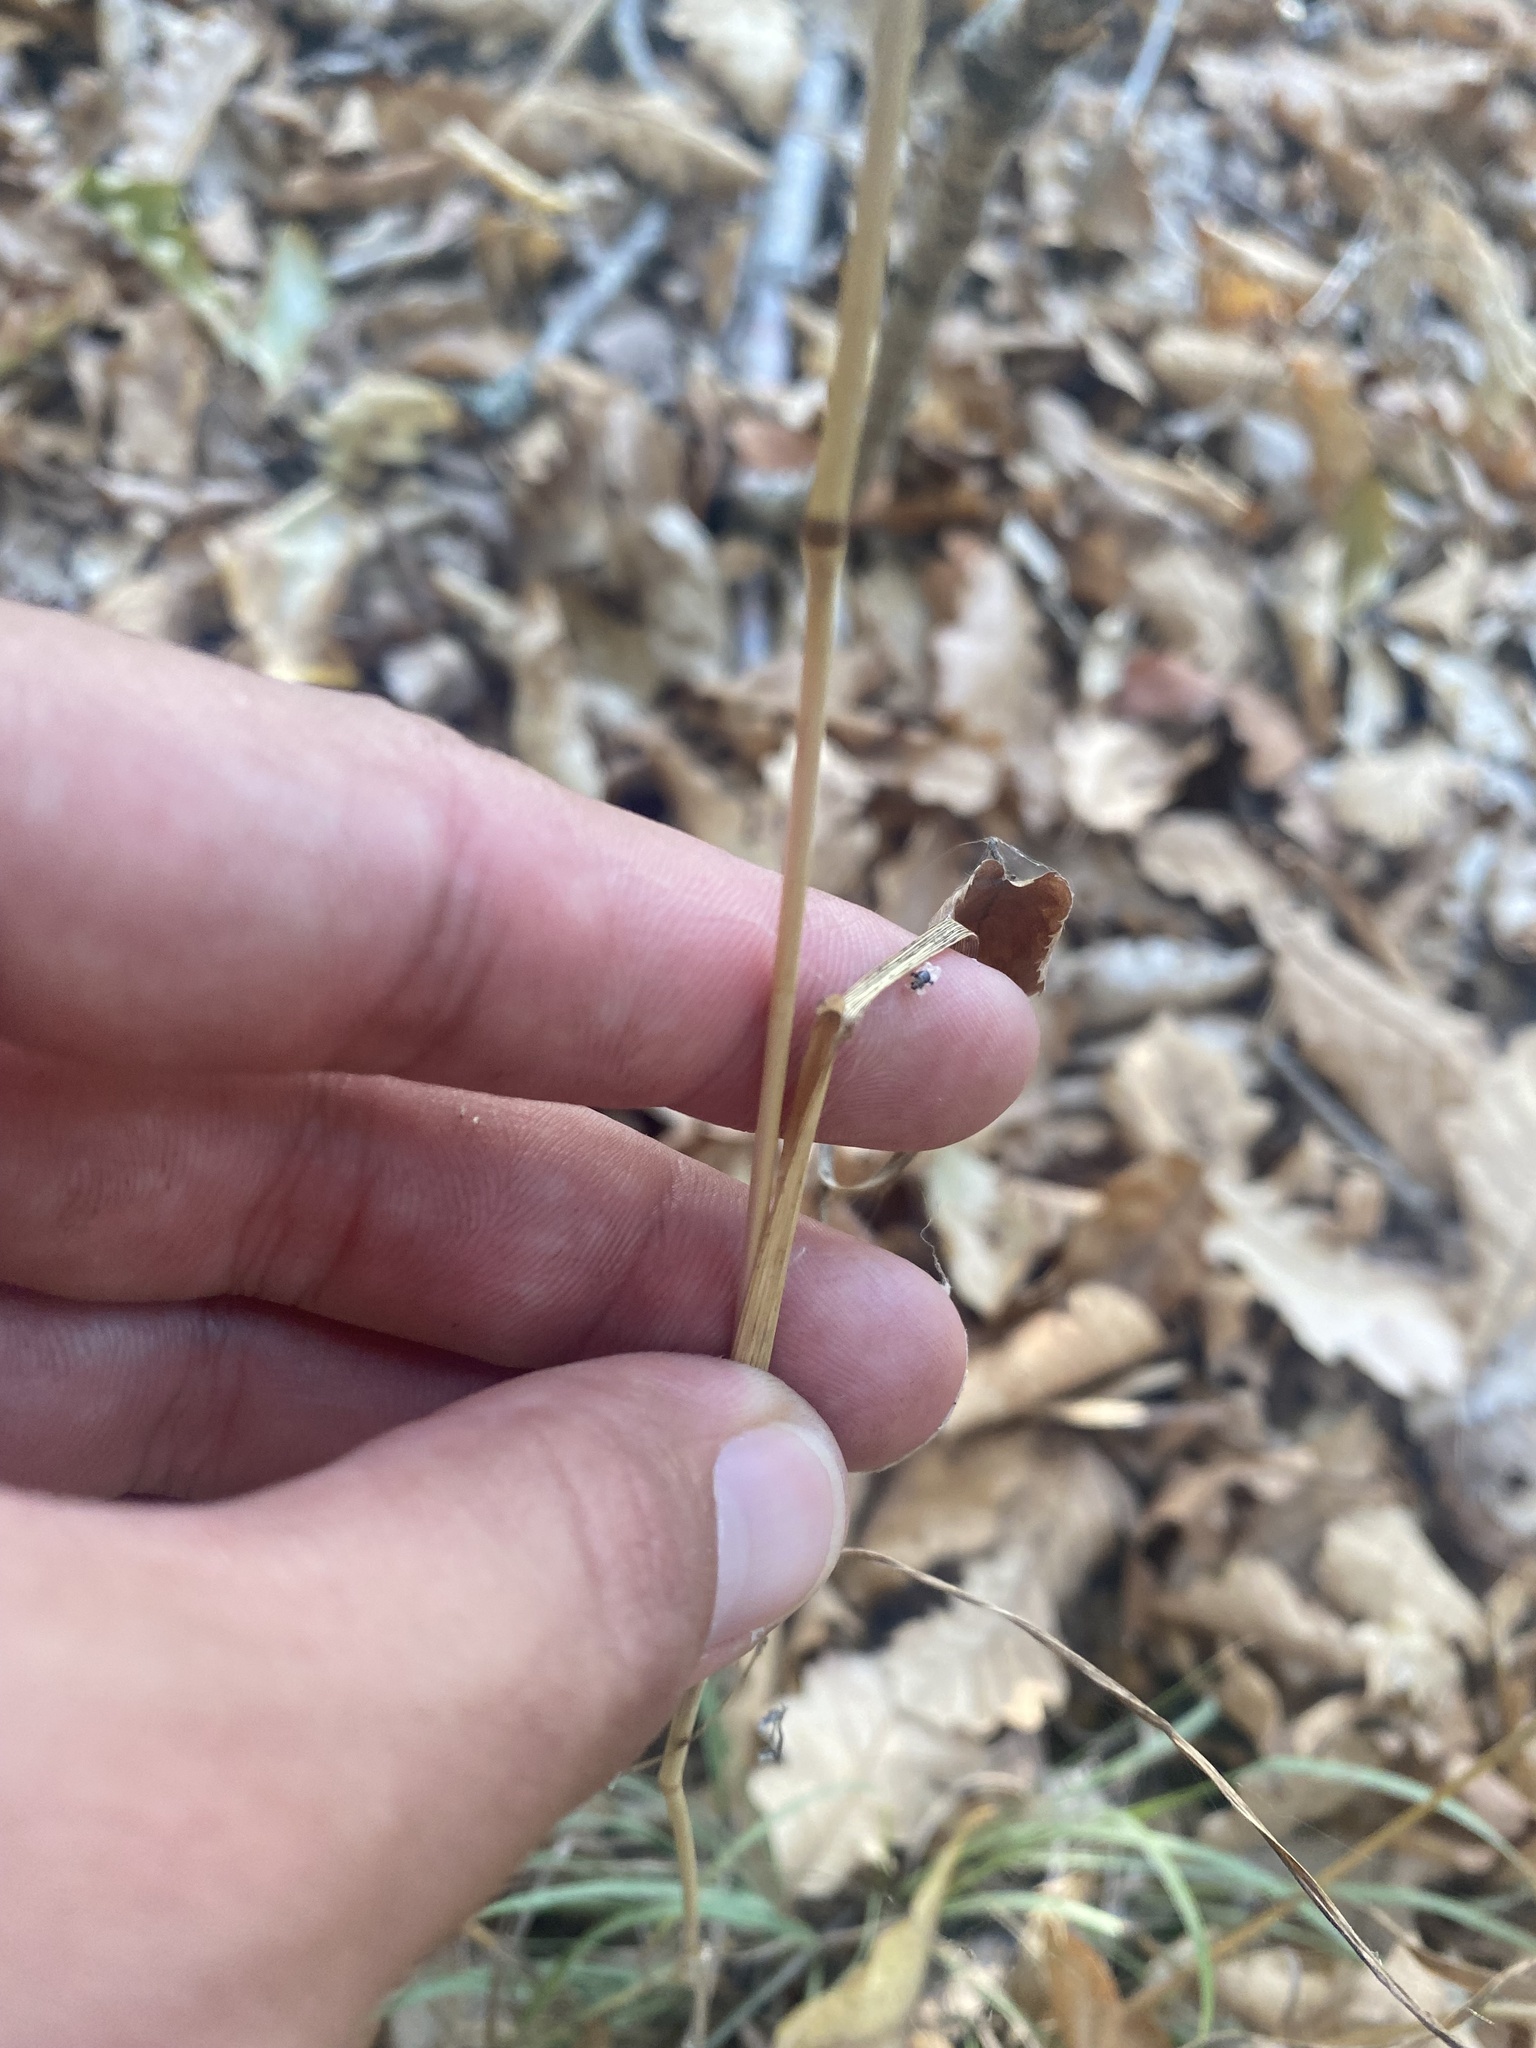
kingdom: Plantae
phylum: Tracheophyta
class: Liliopsida
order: Poales
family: Poaceae
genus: Sesleria
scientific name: Sesleria alba
